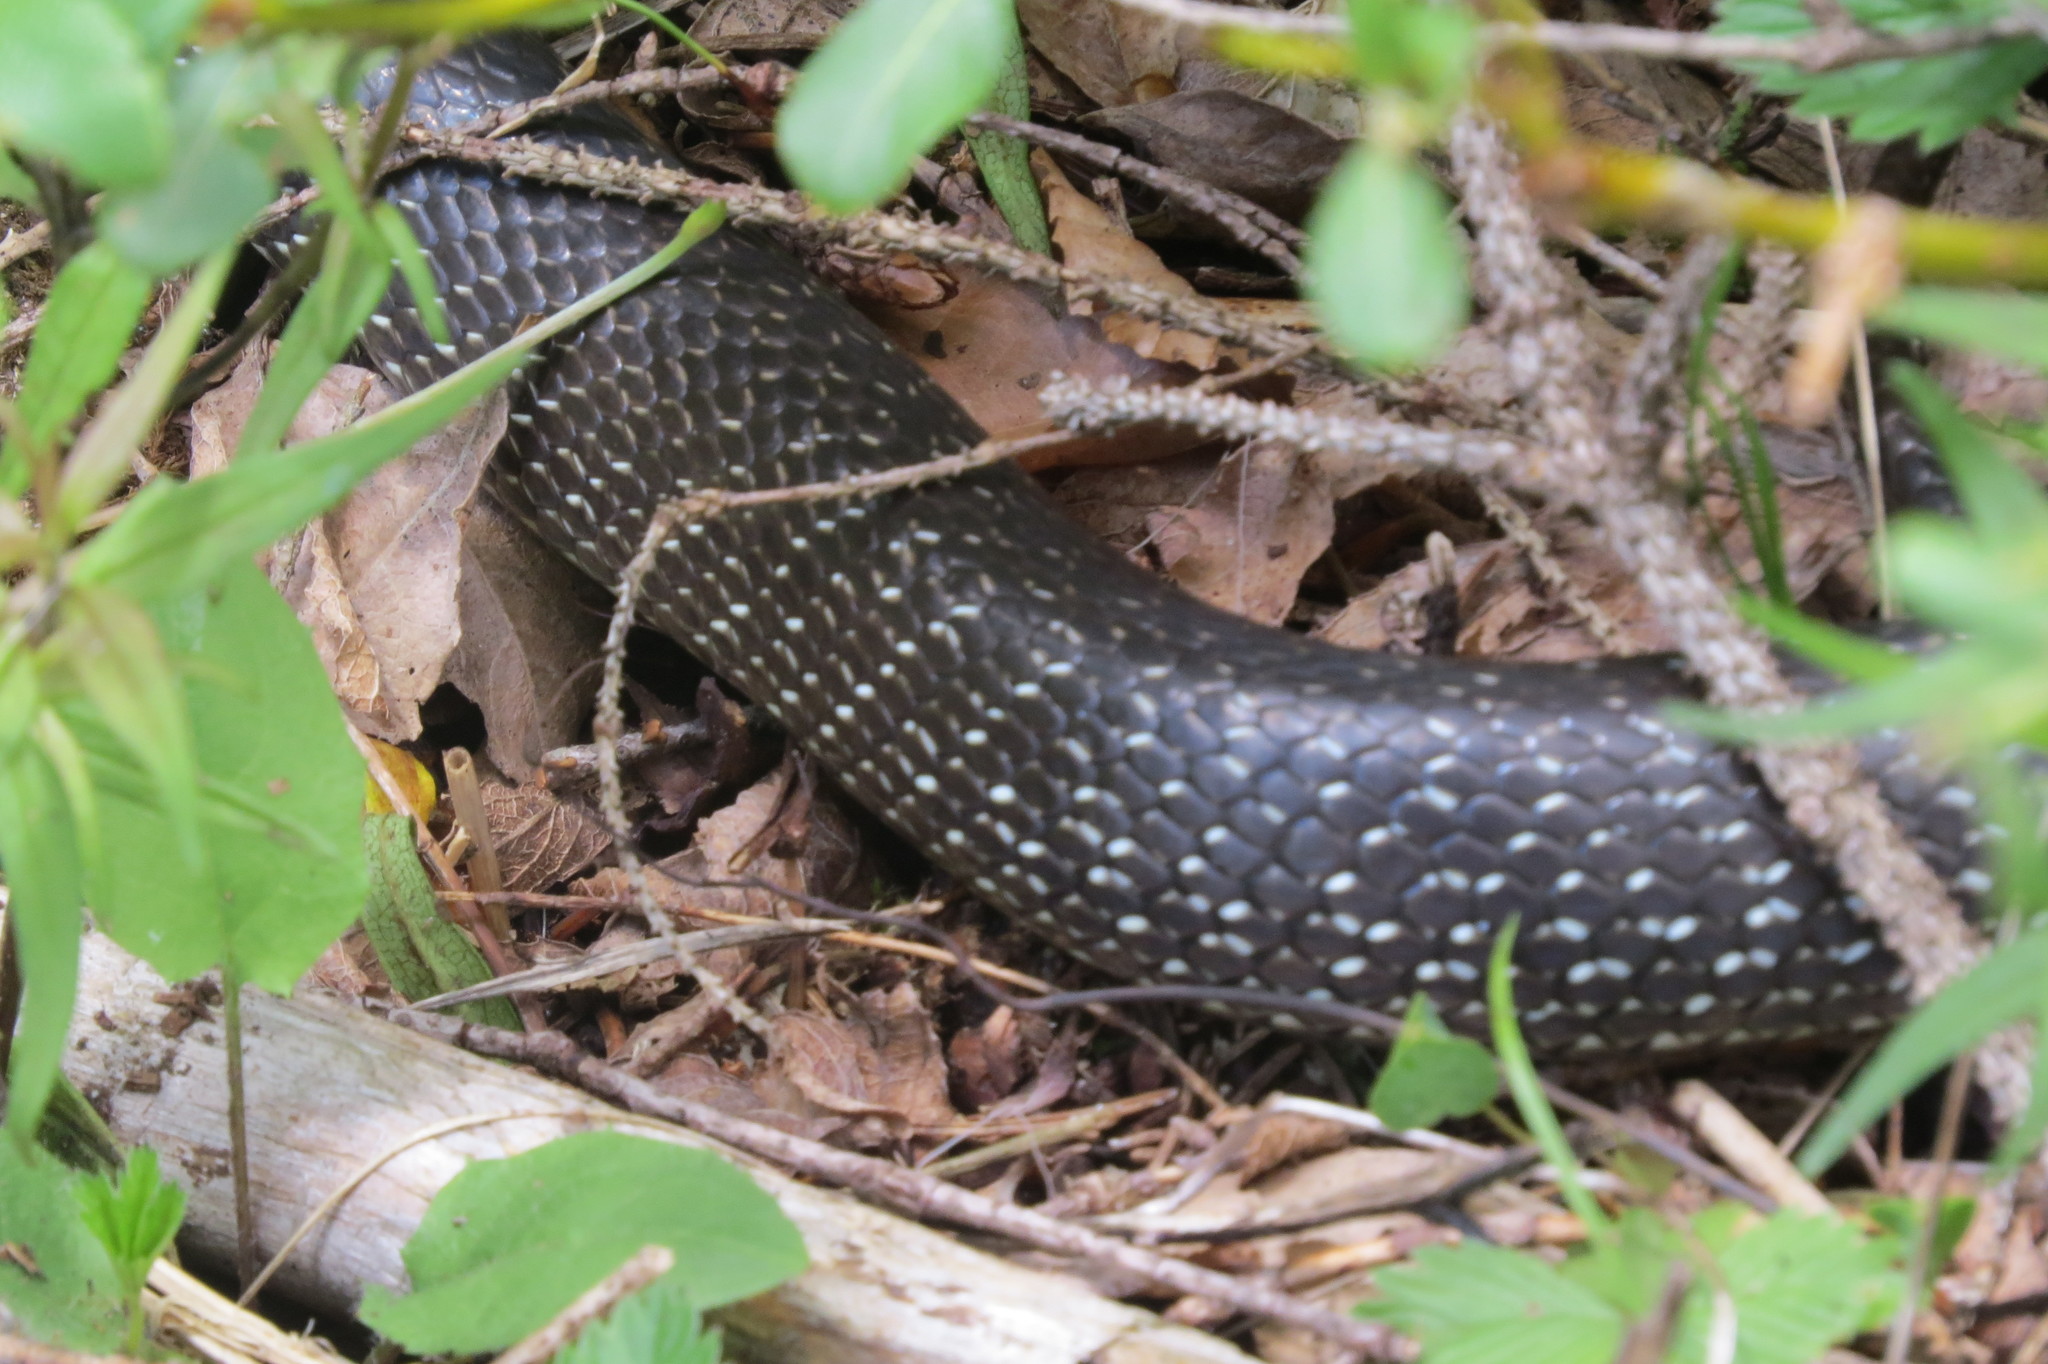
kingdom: Animalia
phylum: Chordata
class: Squamata
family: Colubridae
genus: Zamenis
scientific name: Zamenis longissimus
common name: Aesculapean snake
